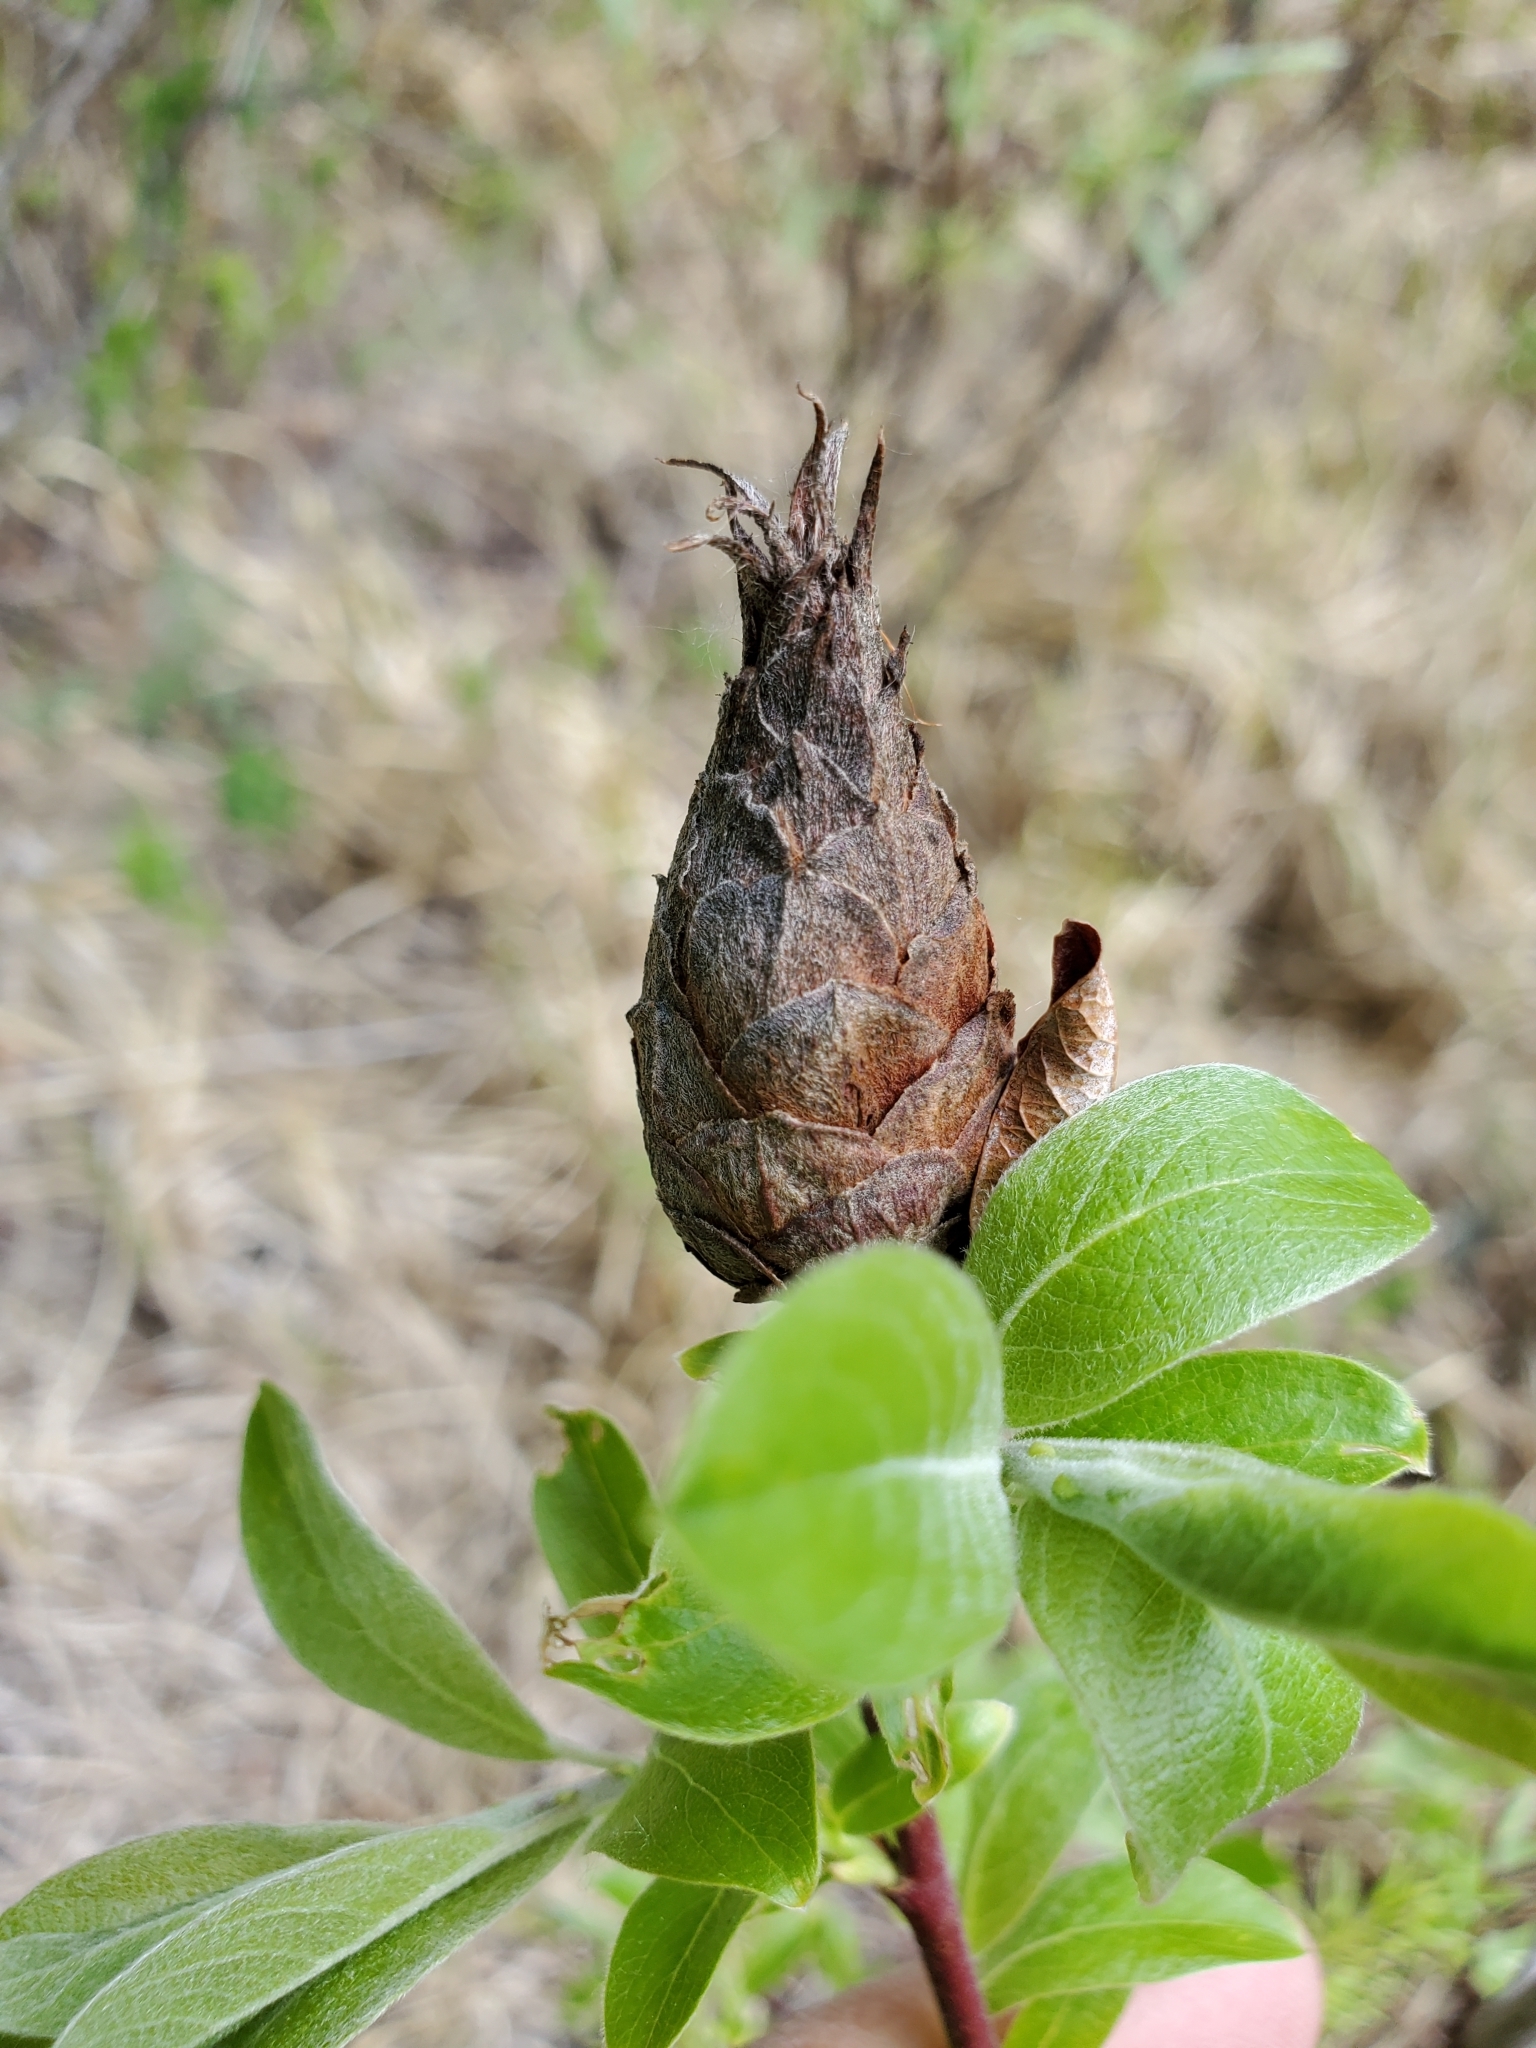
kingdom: Animalia
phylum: Arthropoda
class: Insecta
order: Diptera
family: Cecidomyiidae
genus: Rabdophaga
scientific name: Rabdophaga strobiloides
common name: Willow pinecone gall midge
